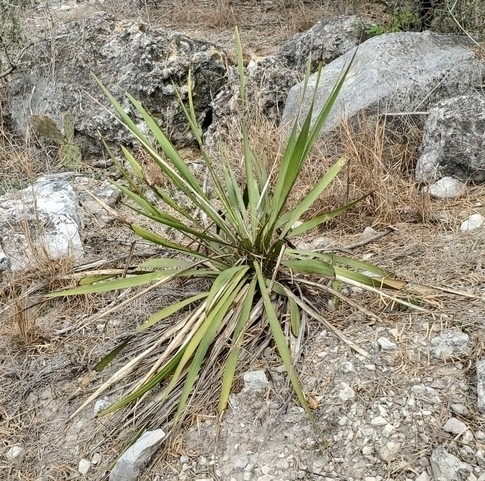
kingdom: Plantae
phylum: Tracheophyta
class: Liliopsida
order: Asparagales
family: Asparagaceae
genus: Yucca
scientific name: Yucca rupicola
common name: Twisted-leaf spanish-dagger
